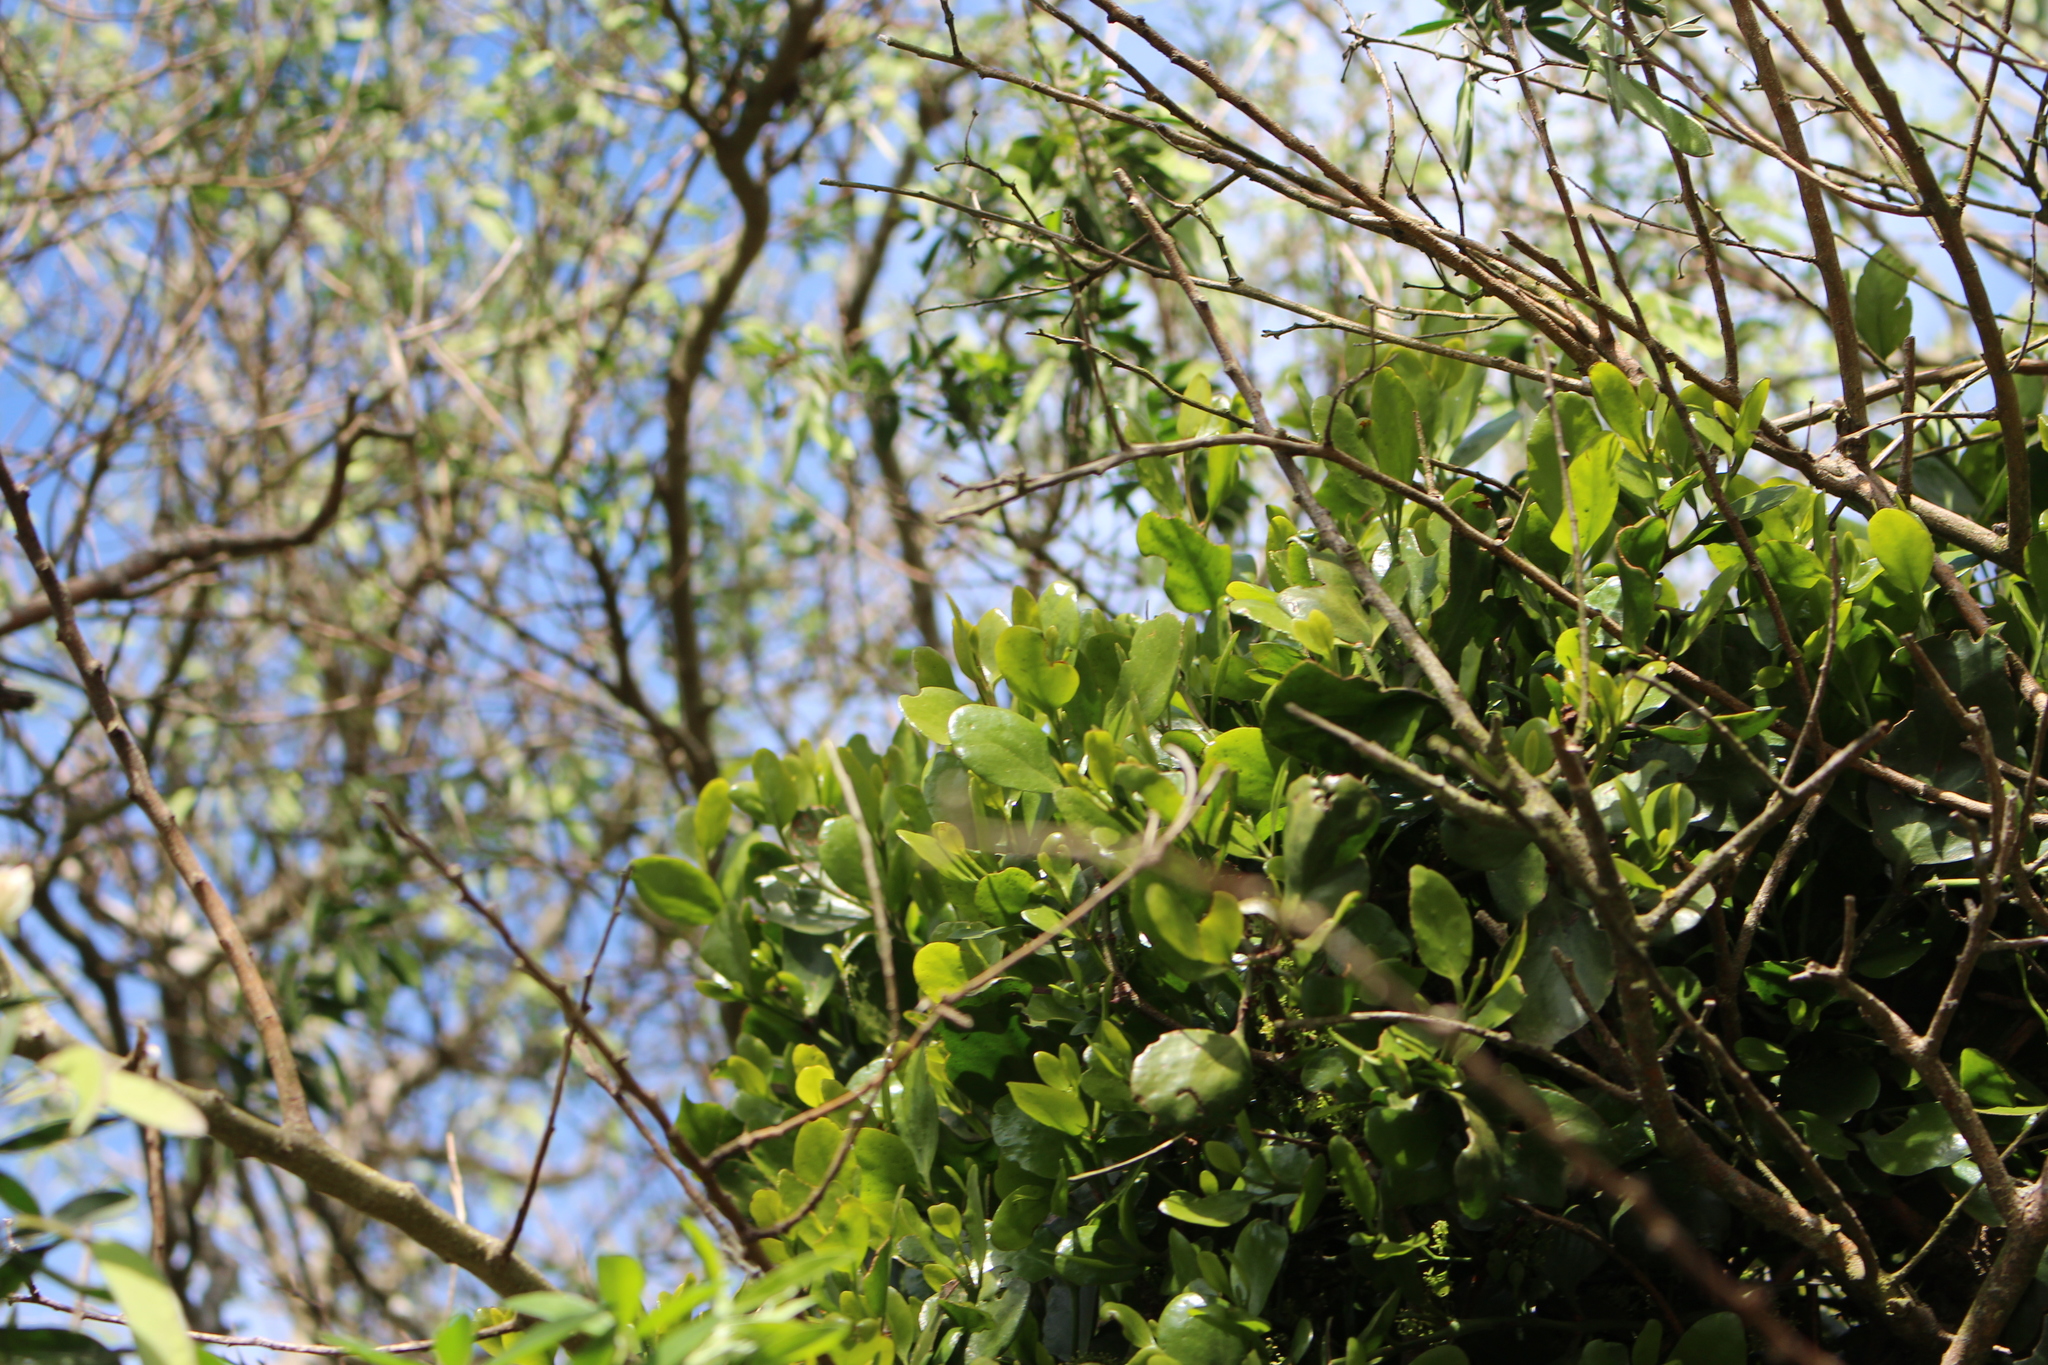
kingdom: Plantae
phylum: Tracheophyta
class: Magnoliopsida
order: Santalales
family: Loranthaceae
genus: Ileostylus
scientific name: Ileostylus micranthus
